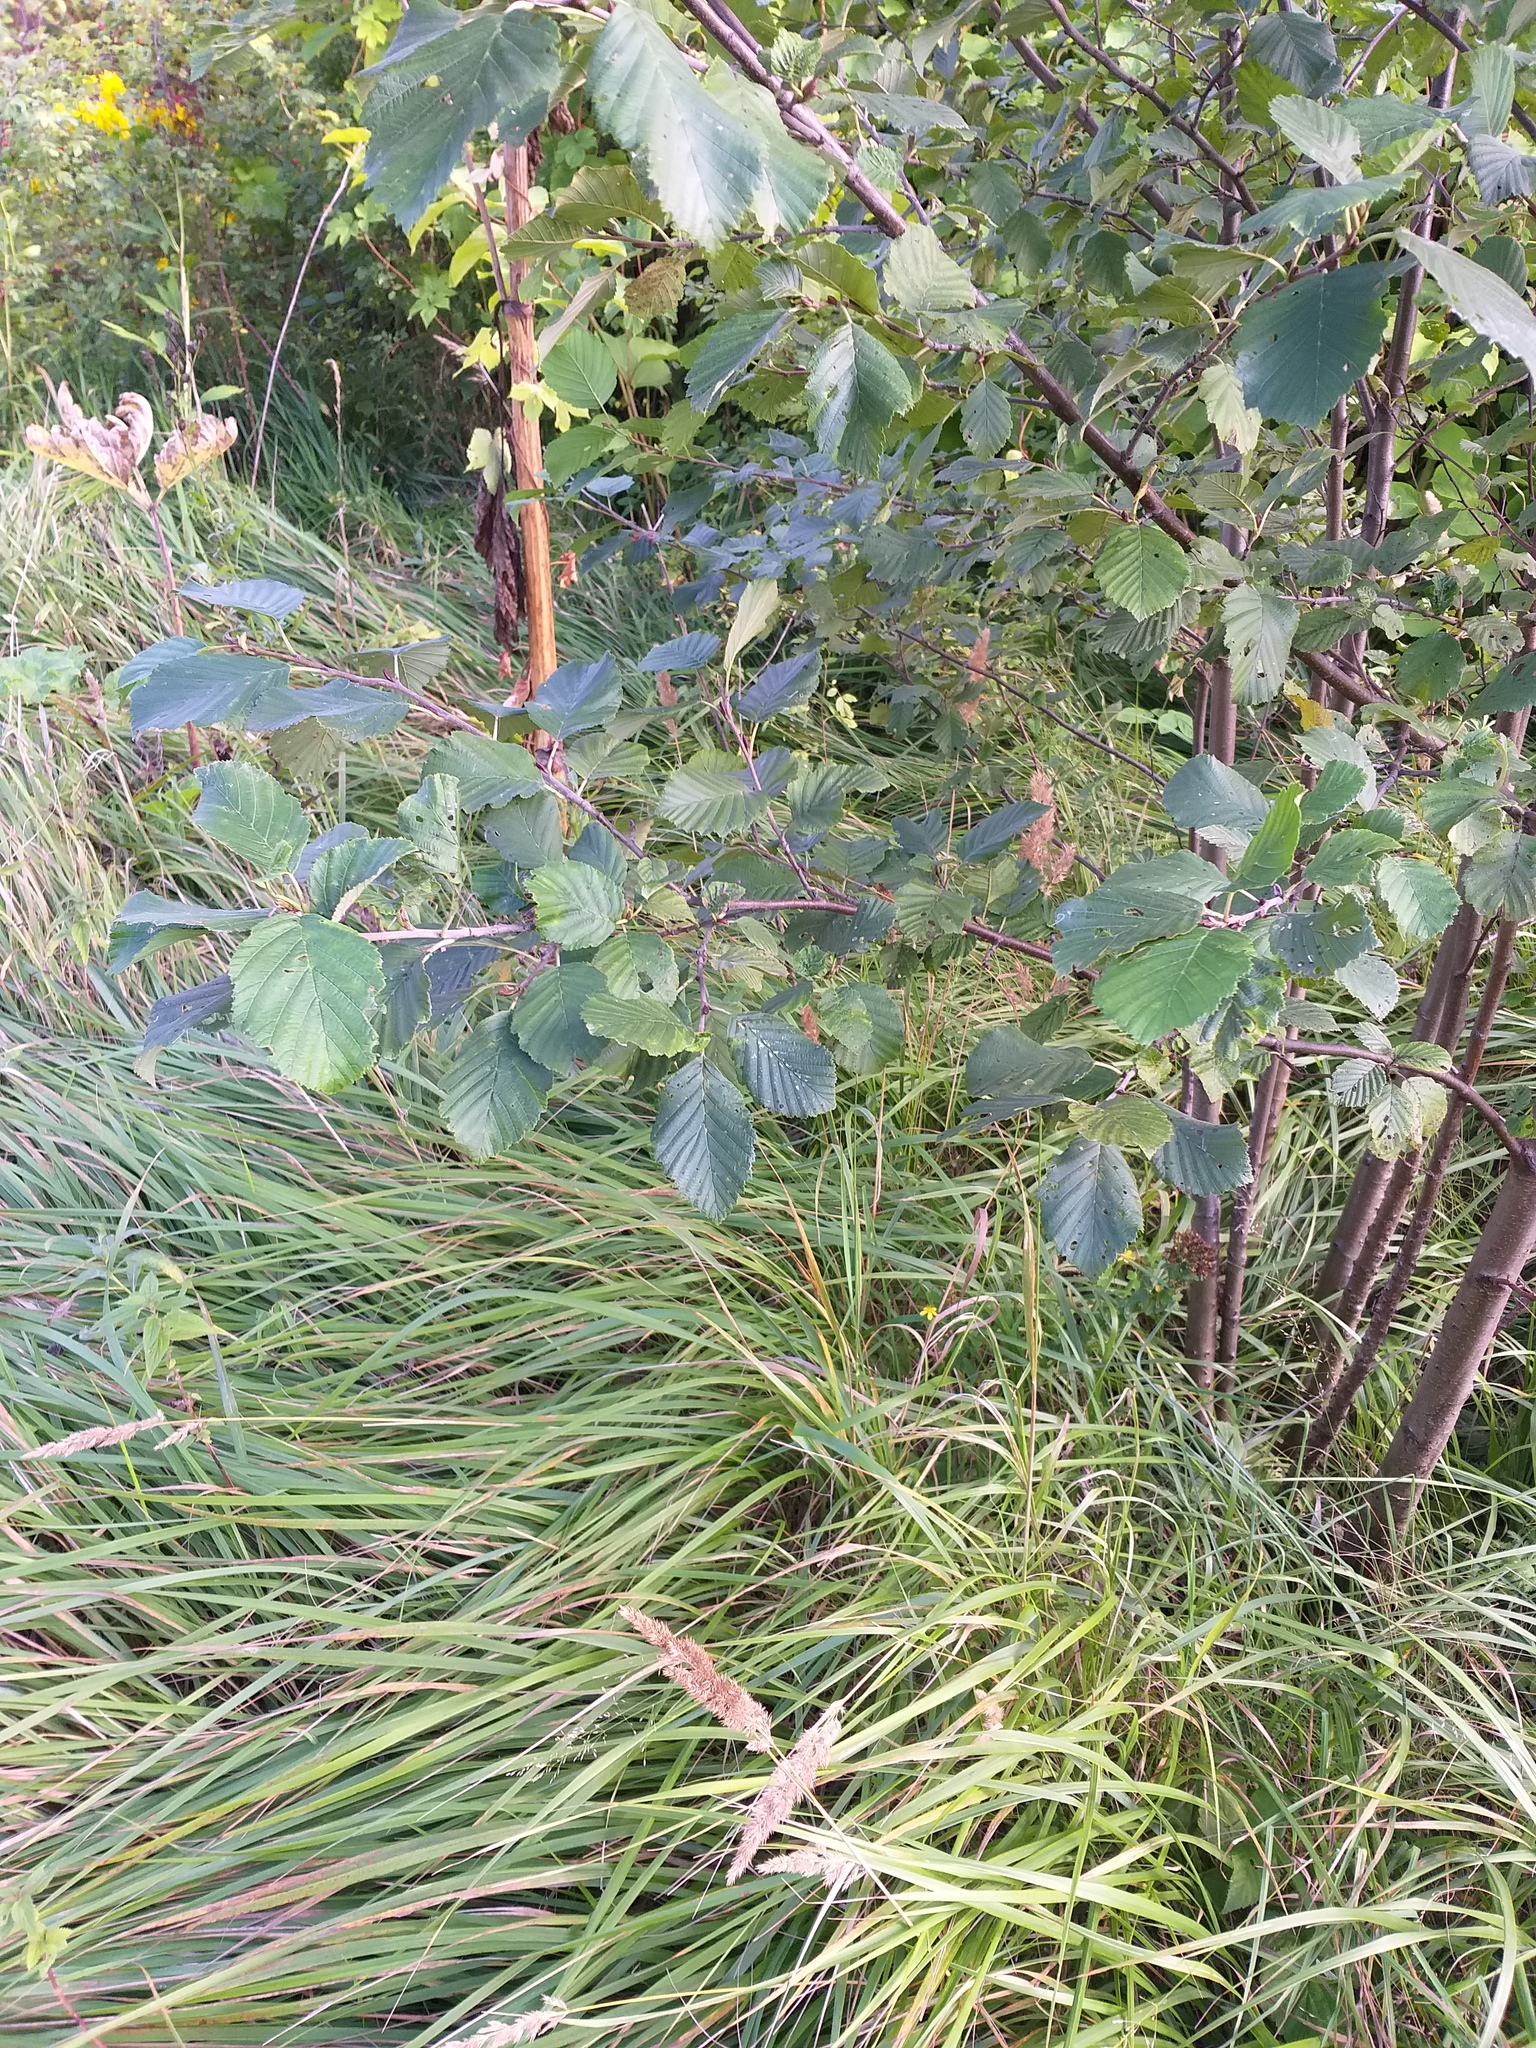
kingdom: Plantae
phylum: Tracheophyta
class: Magnoliopsida
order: Fagales
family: Betulaceae
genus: Alnus
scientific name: Alnus incana
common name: Grey alder
